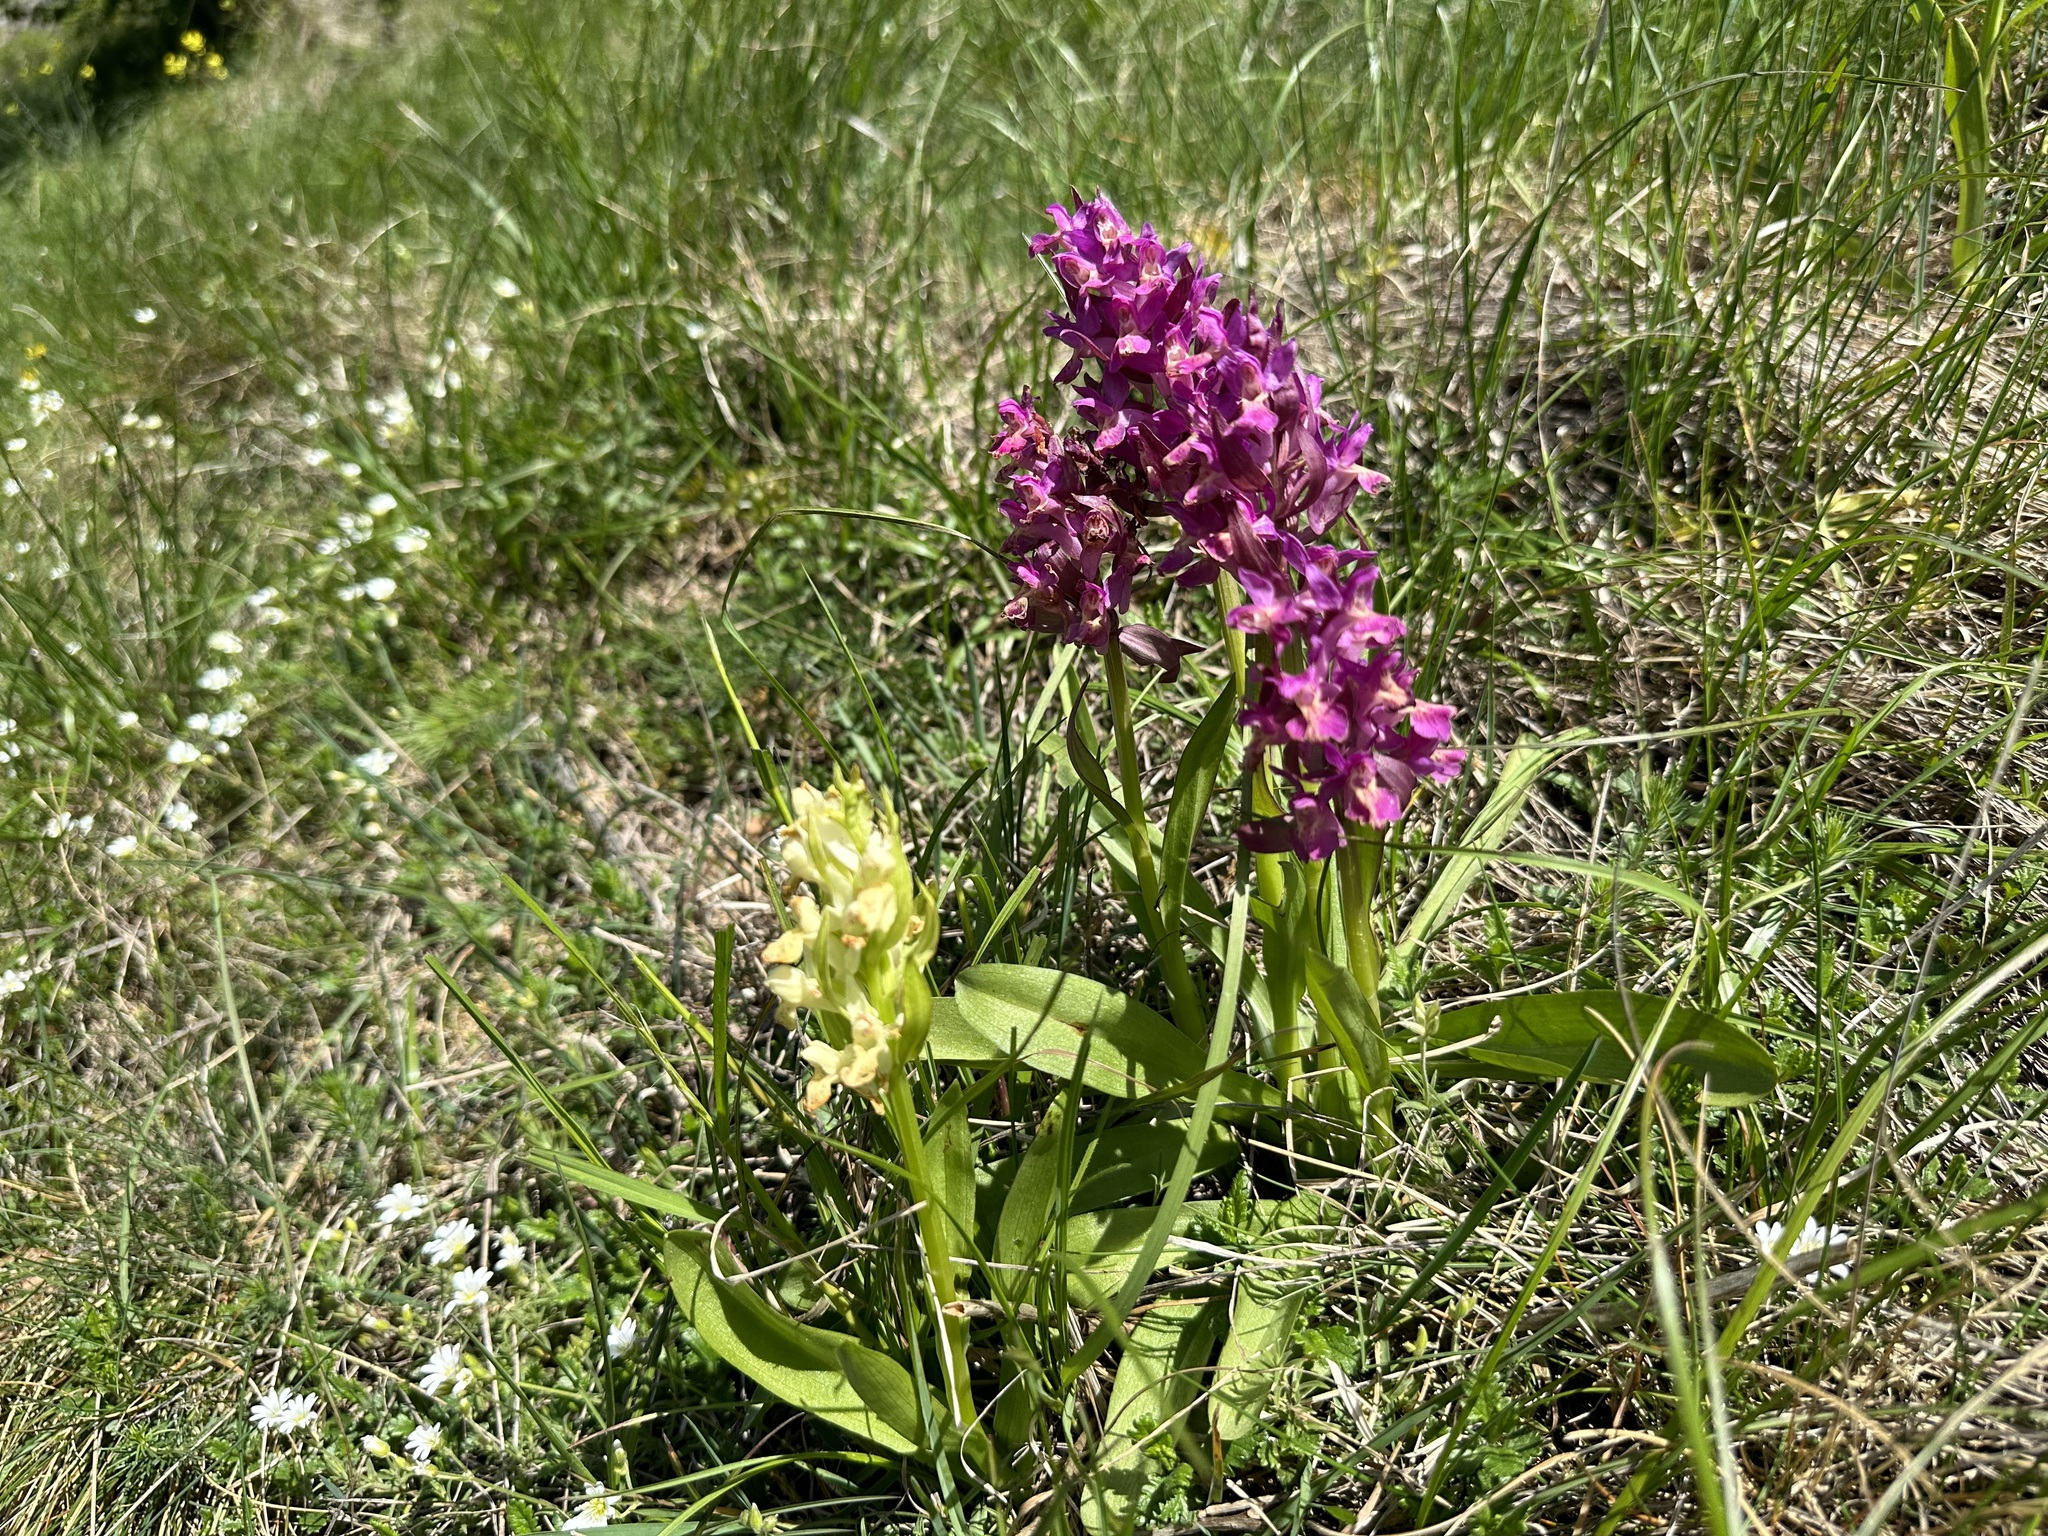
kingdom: Plantae
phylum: Tracheophyta
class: Liliopsida
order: Asparagales
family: Orchidaceae
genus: Dactylorhiza
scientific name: Dactylorhiza sambucina
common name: Elder-flowered orchid
